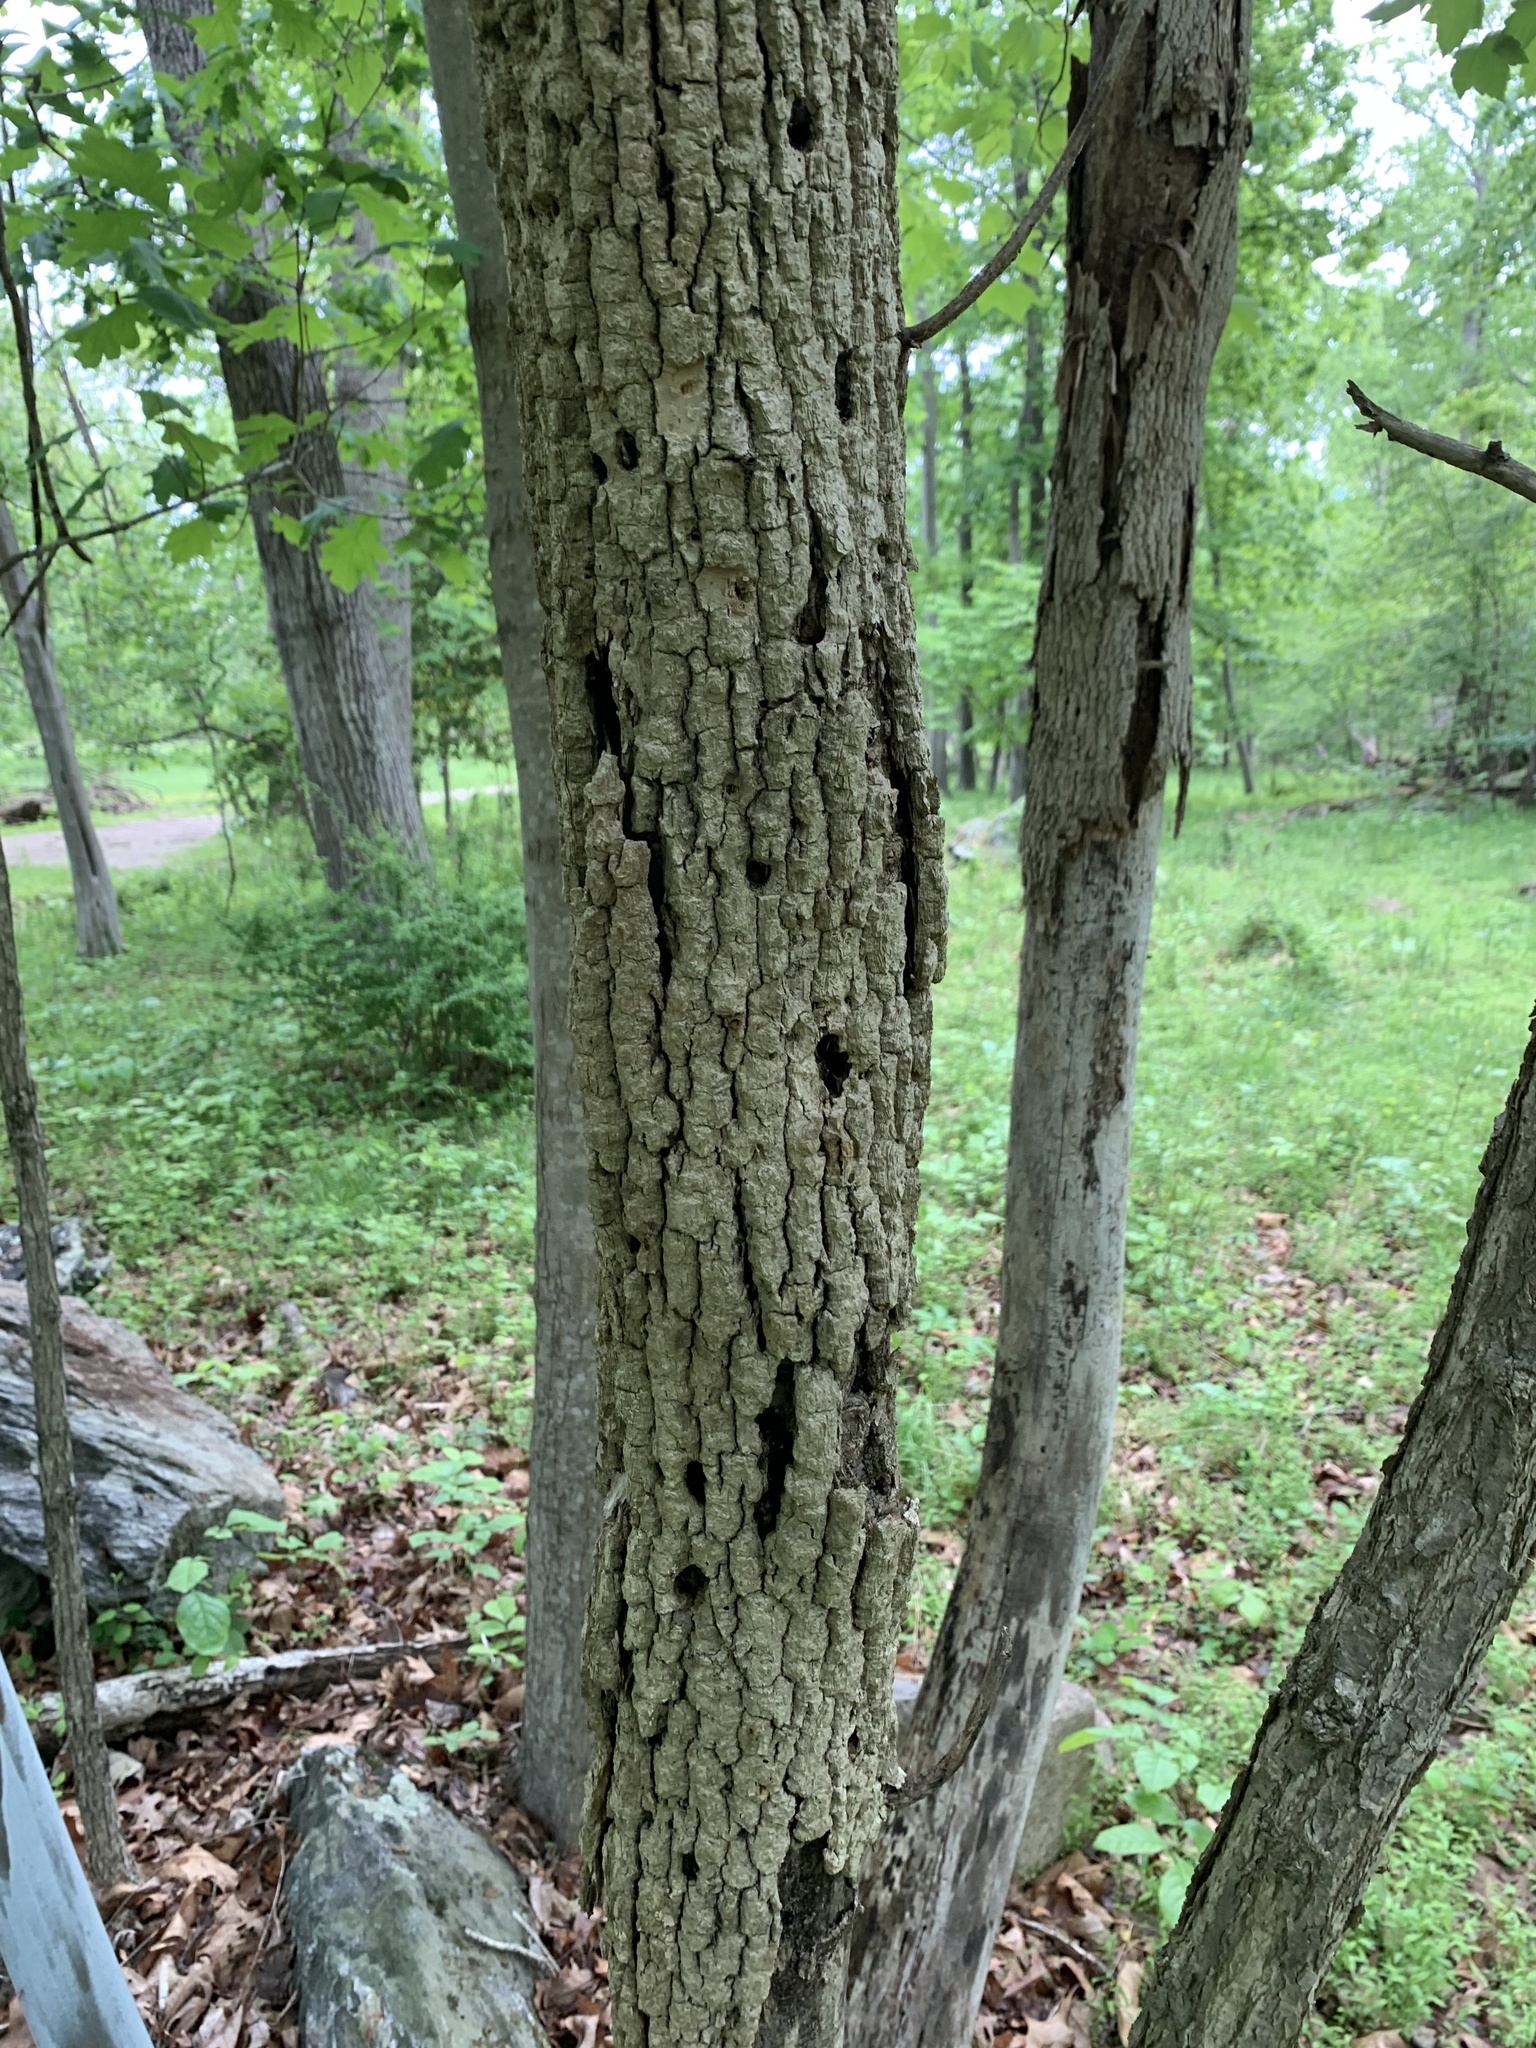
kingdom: Animalia
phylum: Arthropoda
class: Insecta
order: Coleoptera
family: Buprestidae
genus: Agrilus
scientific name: Agrilus planipennis
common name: Emerald ash borer
